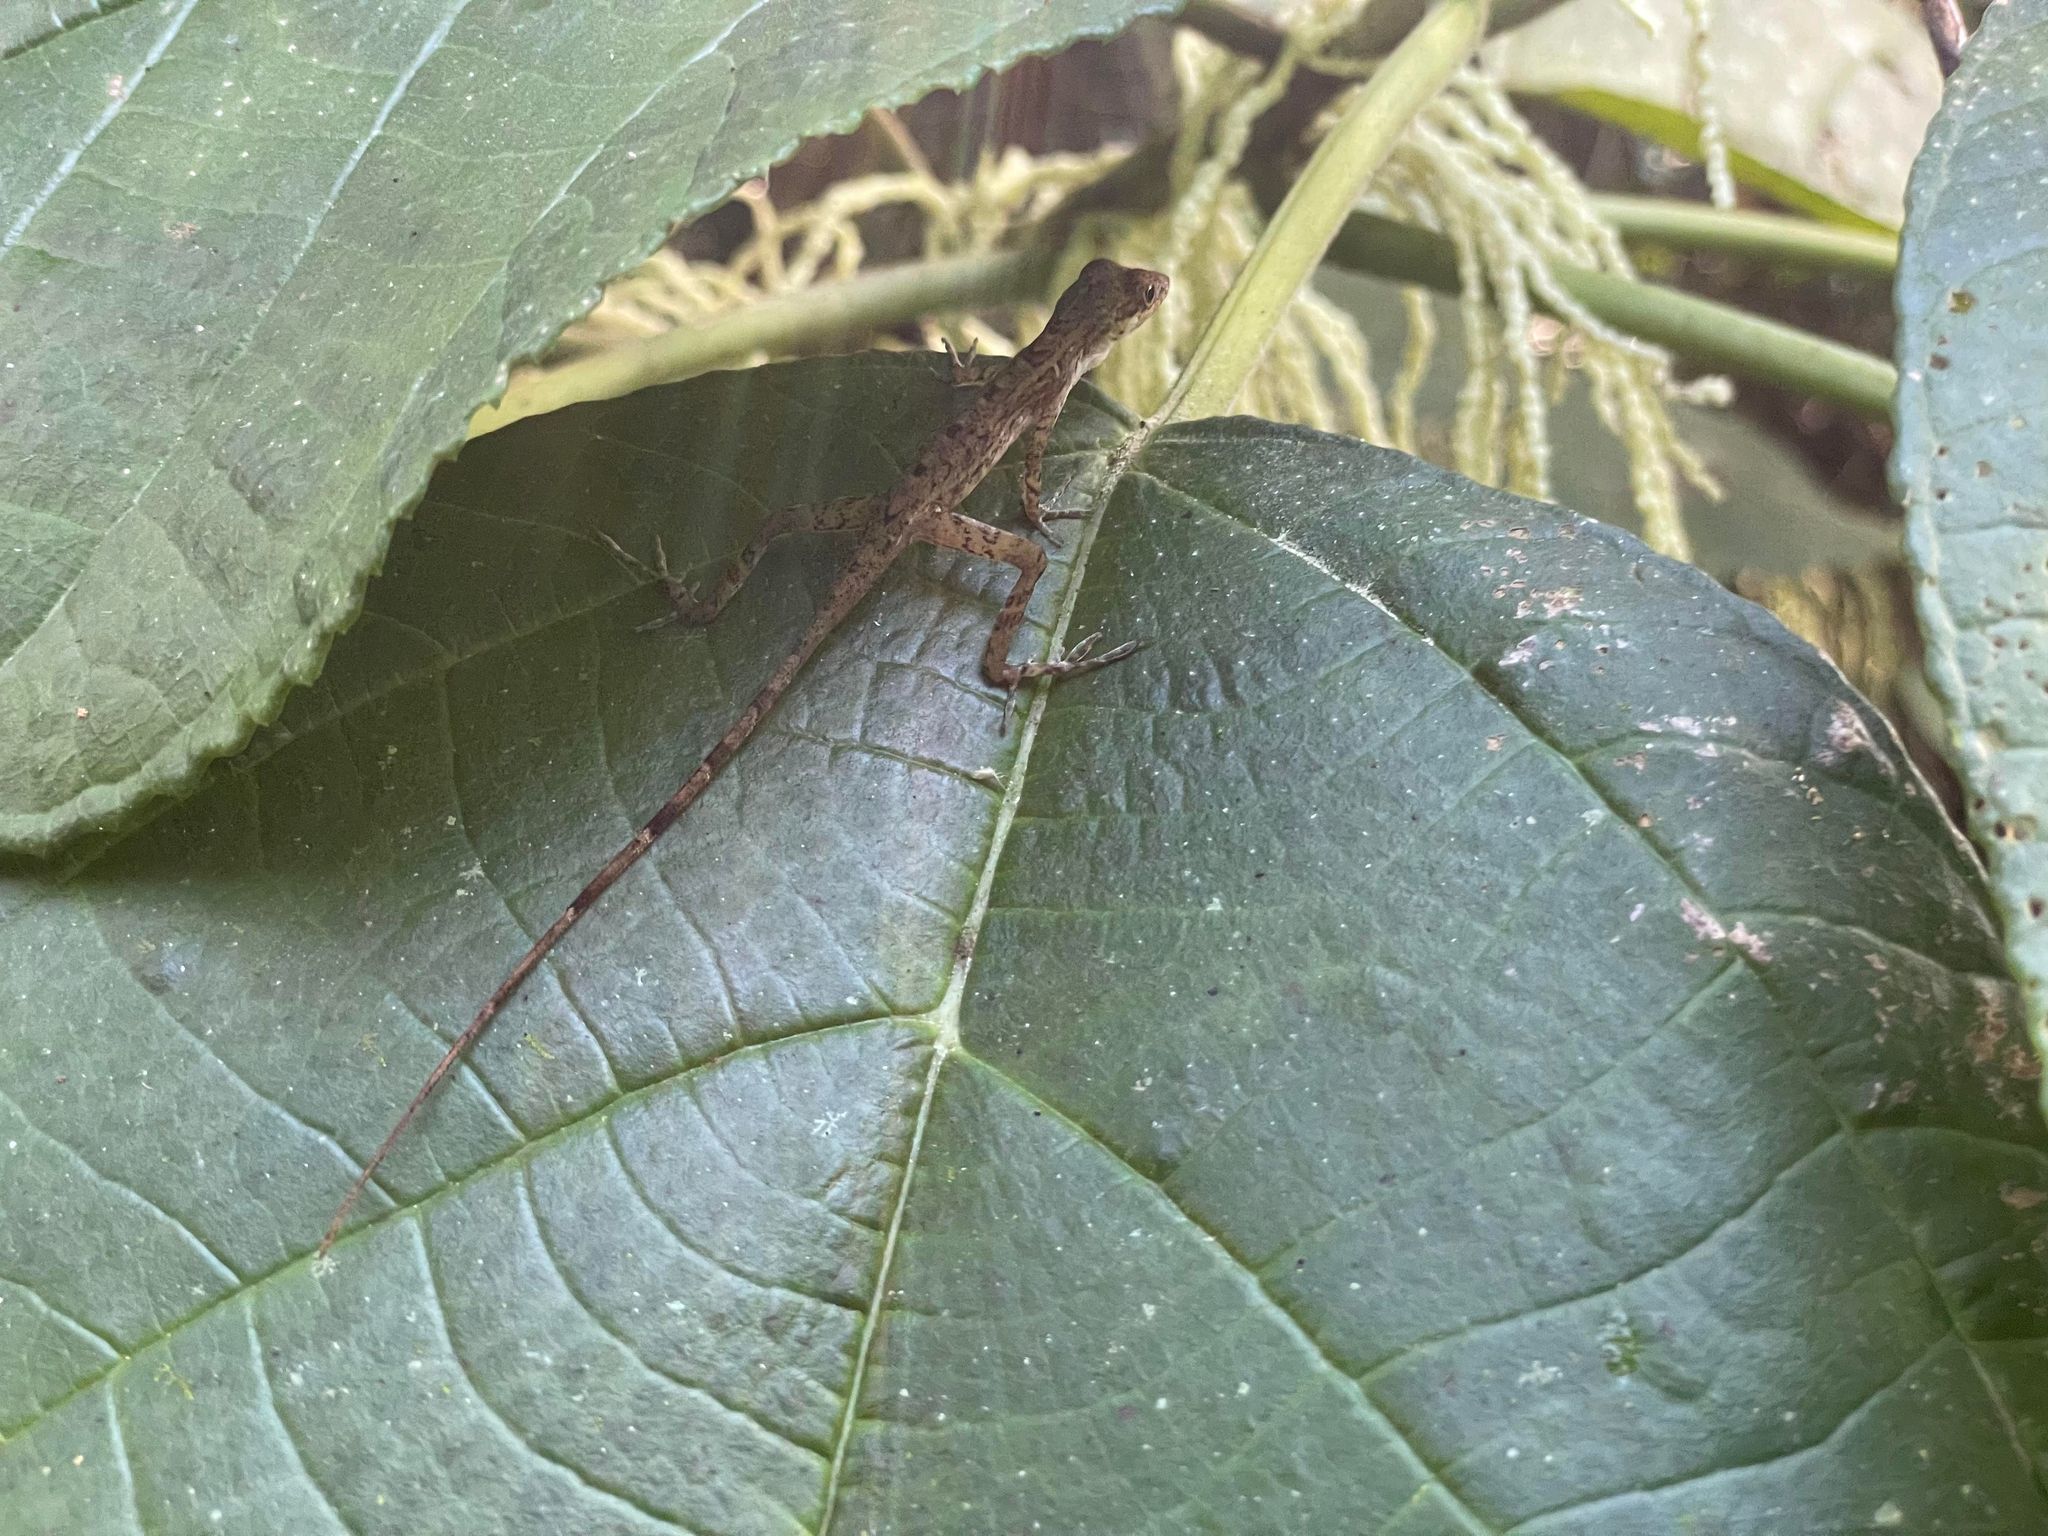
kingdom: Animalia
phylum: Chordata
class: Squamata
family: Dactyloidae
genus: Anolis
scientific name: Anolis apletophallus
